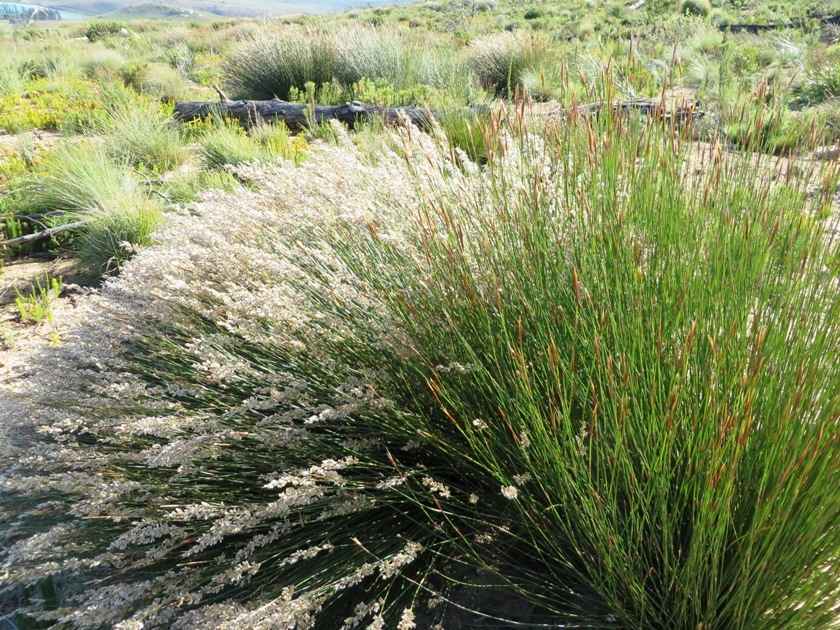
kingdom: Plantae
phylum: Tracheophyta
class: Liliopsida
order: Poales
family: Restionaceae
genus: Hypodiscus
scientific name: Hypodiscus argenteus
